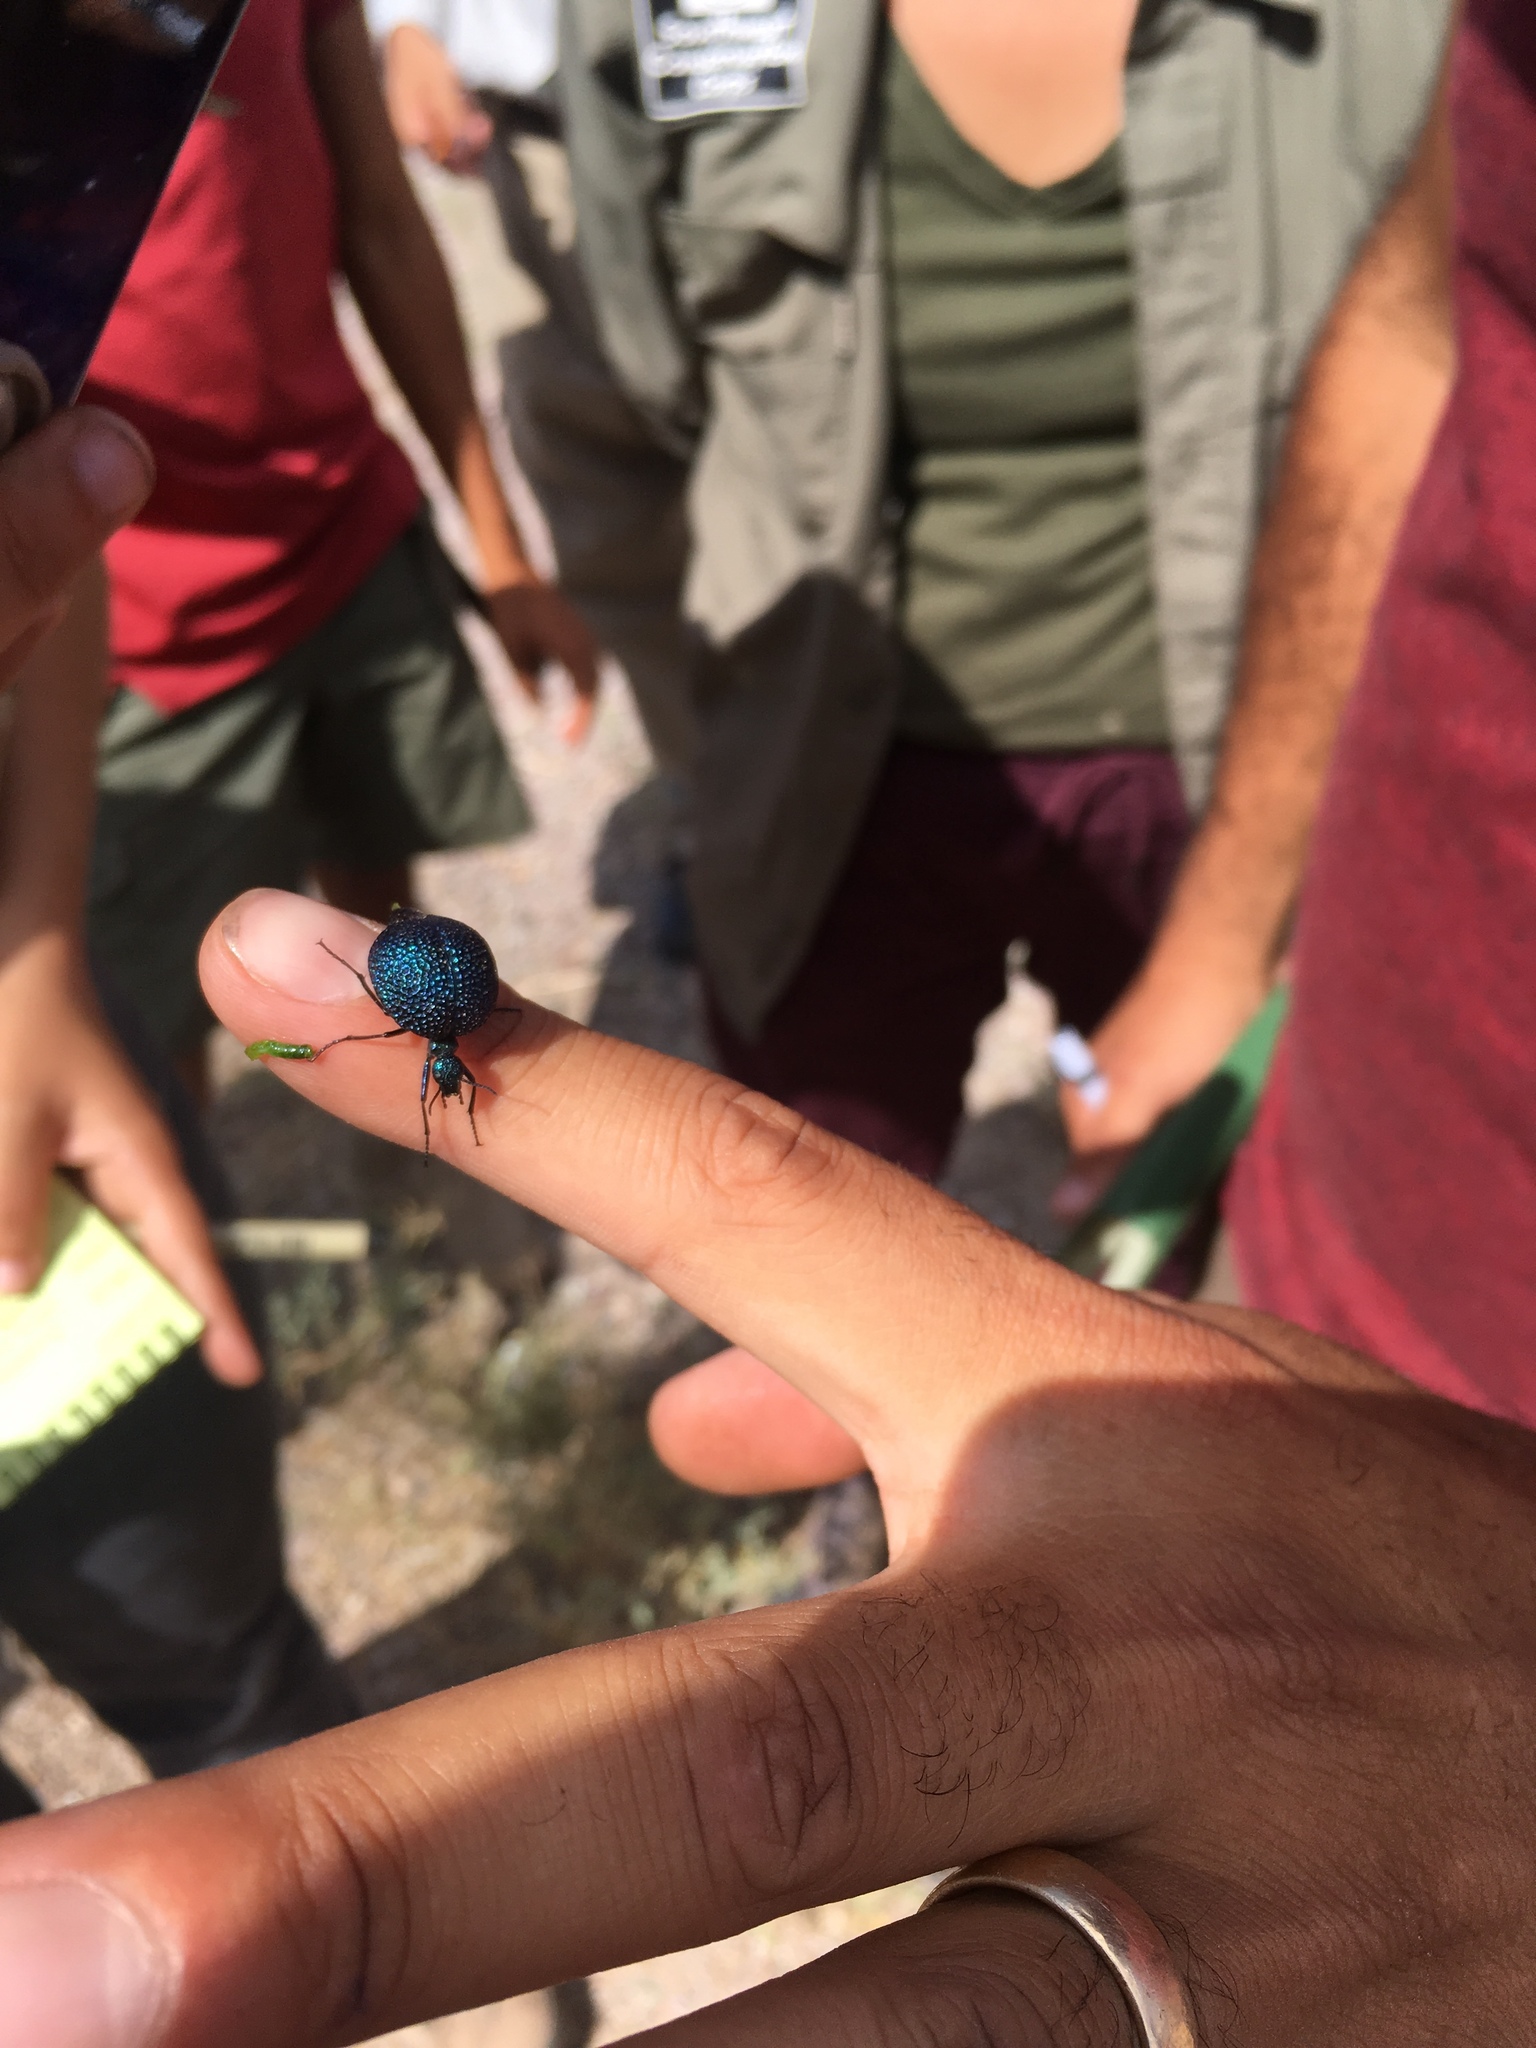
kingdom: Animalia
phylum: Arthropoda
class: Insecta
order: Coleoptera
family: Meloidae
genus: Cysteodemus
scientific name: Cysteodemus wislizeni
